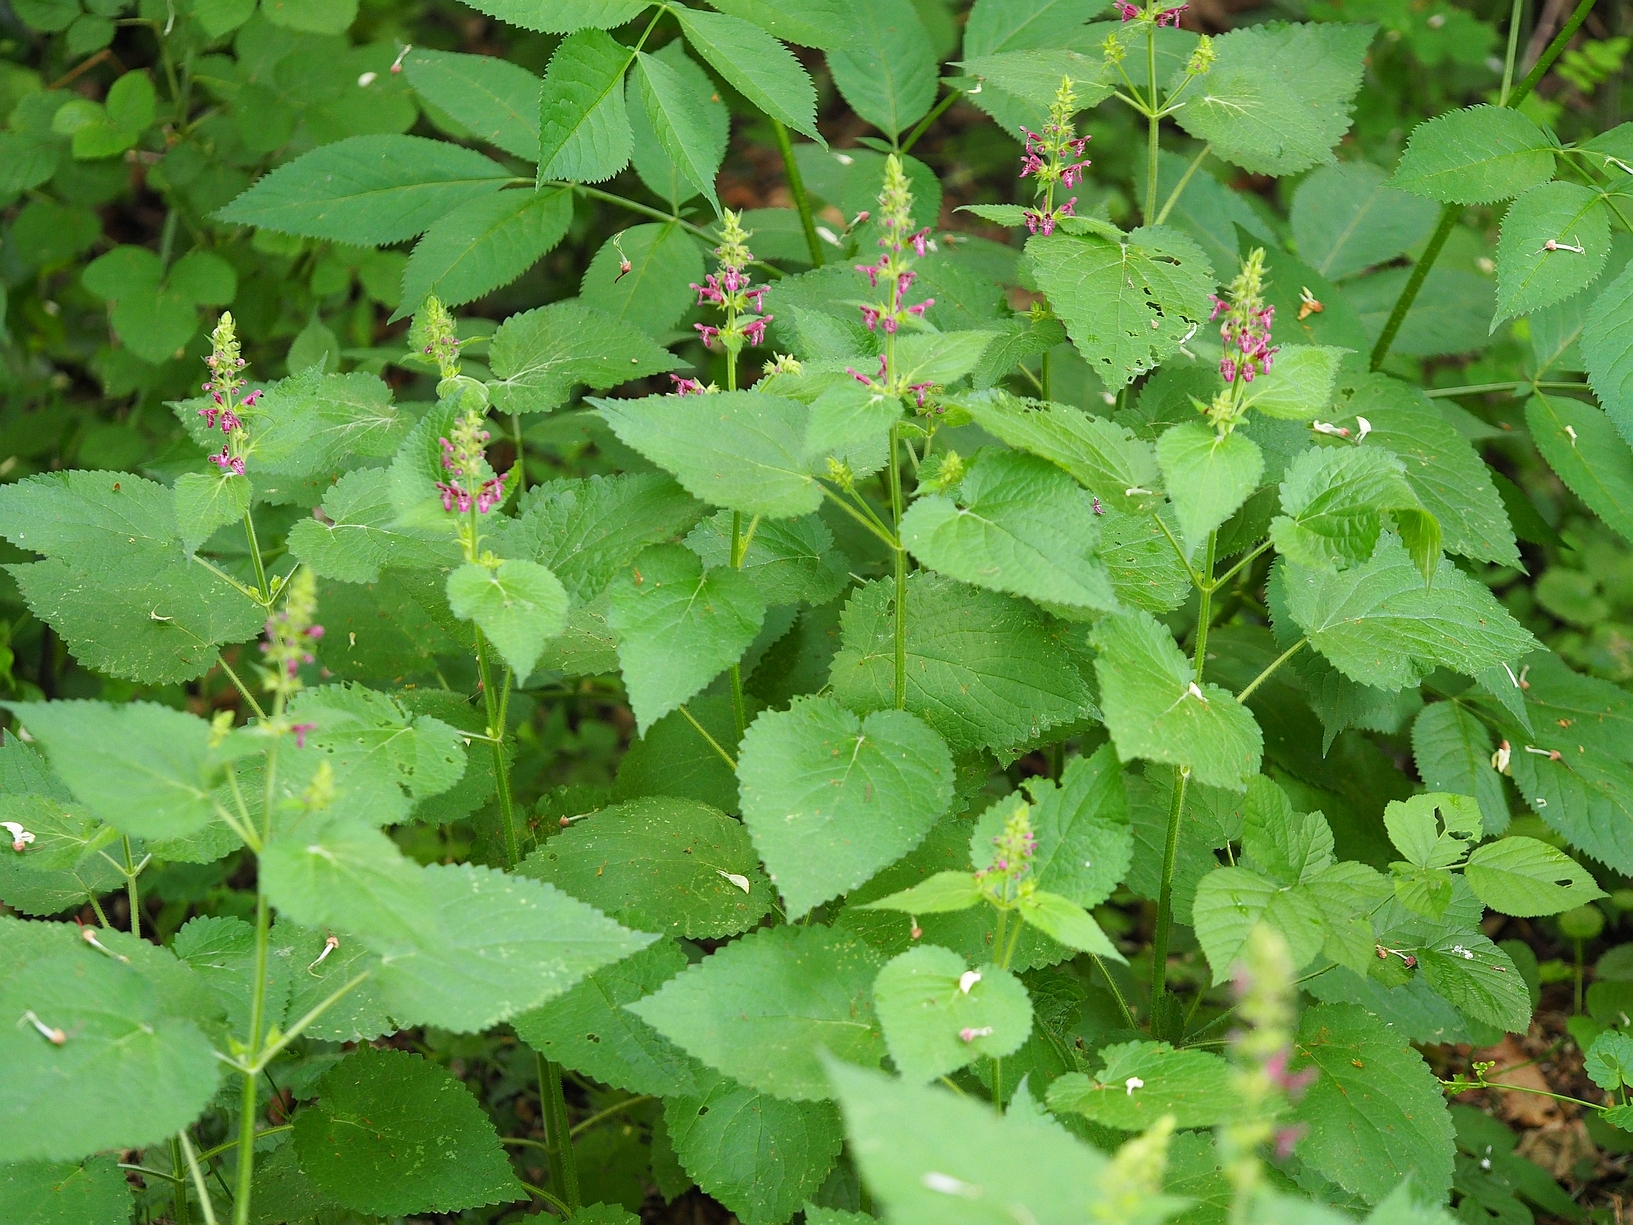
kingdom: Plantae
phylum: Tracheophyta
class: Magnoliopsida
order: Lamiales
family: Lamiaceae
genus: Stachys
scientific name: Stachys sylvatica
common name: Hedge woundwort
